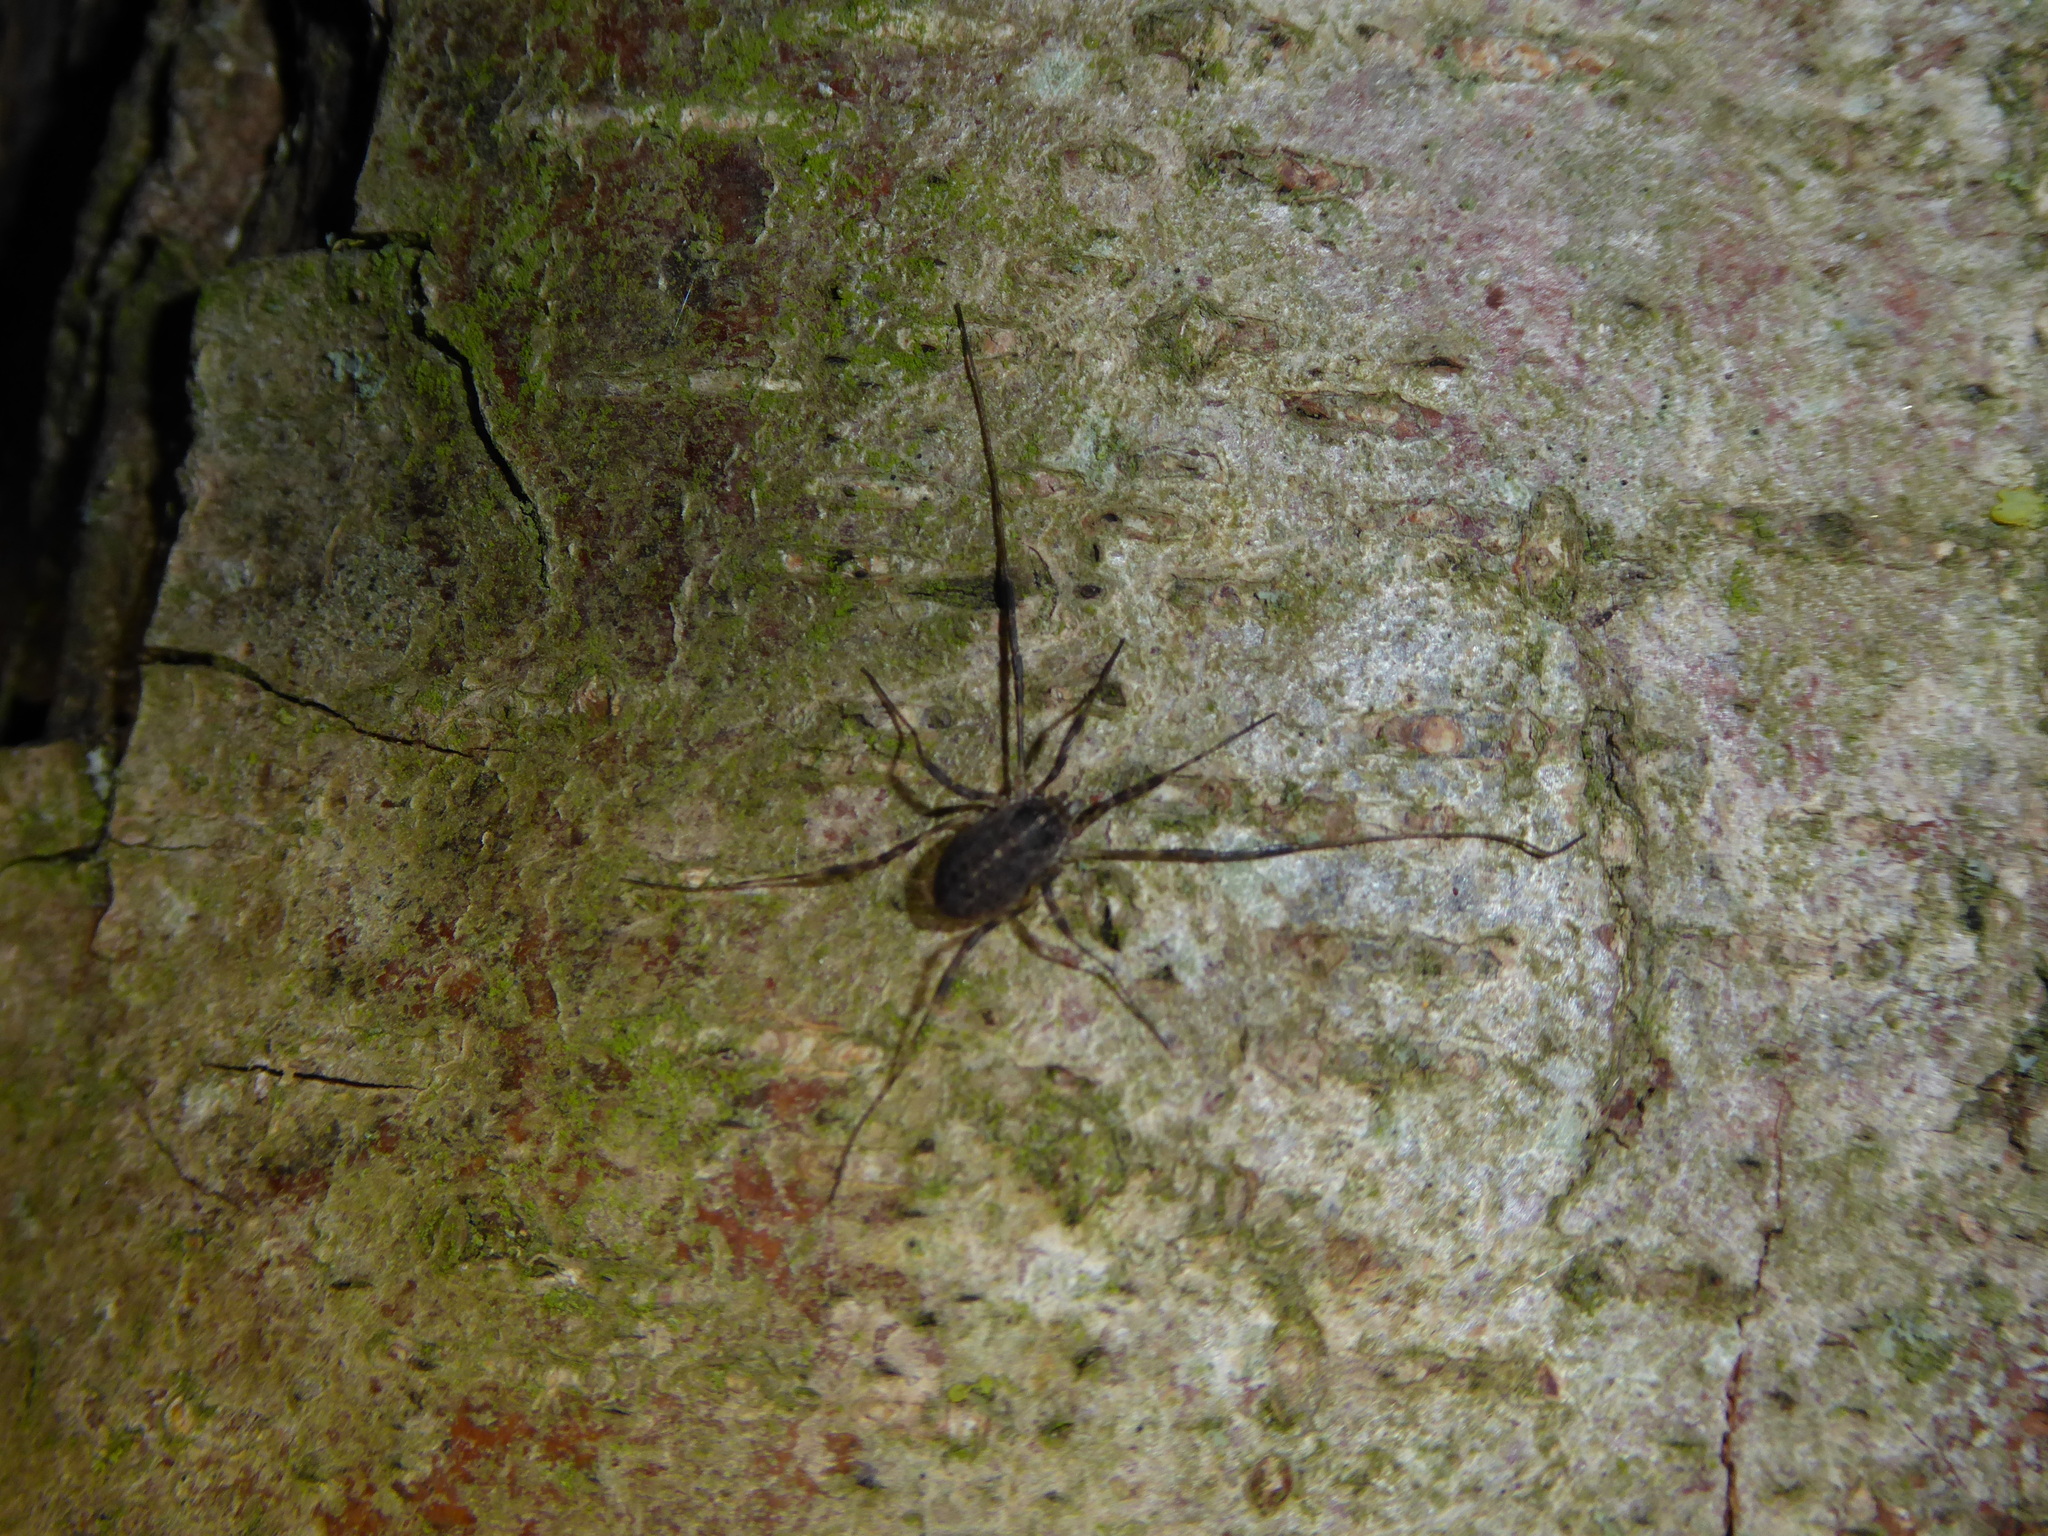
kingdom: Animalia
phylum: Arthropoda
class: Arachnida
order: Opiliones
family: Phalangiidae
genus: Paroligolophus
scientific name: Paroligolophus agrestis
